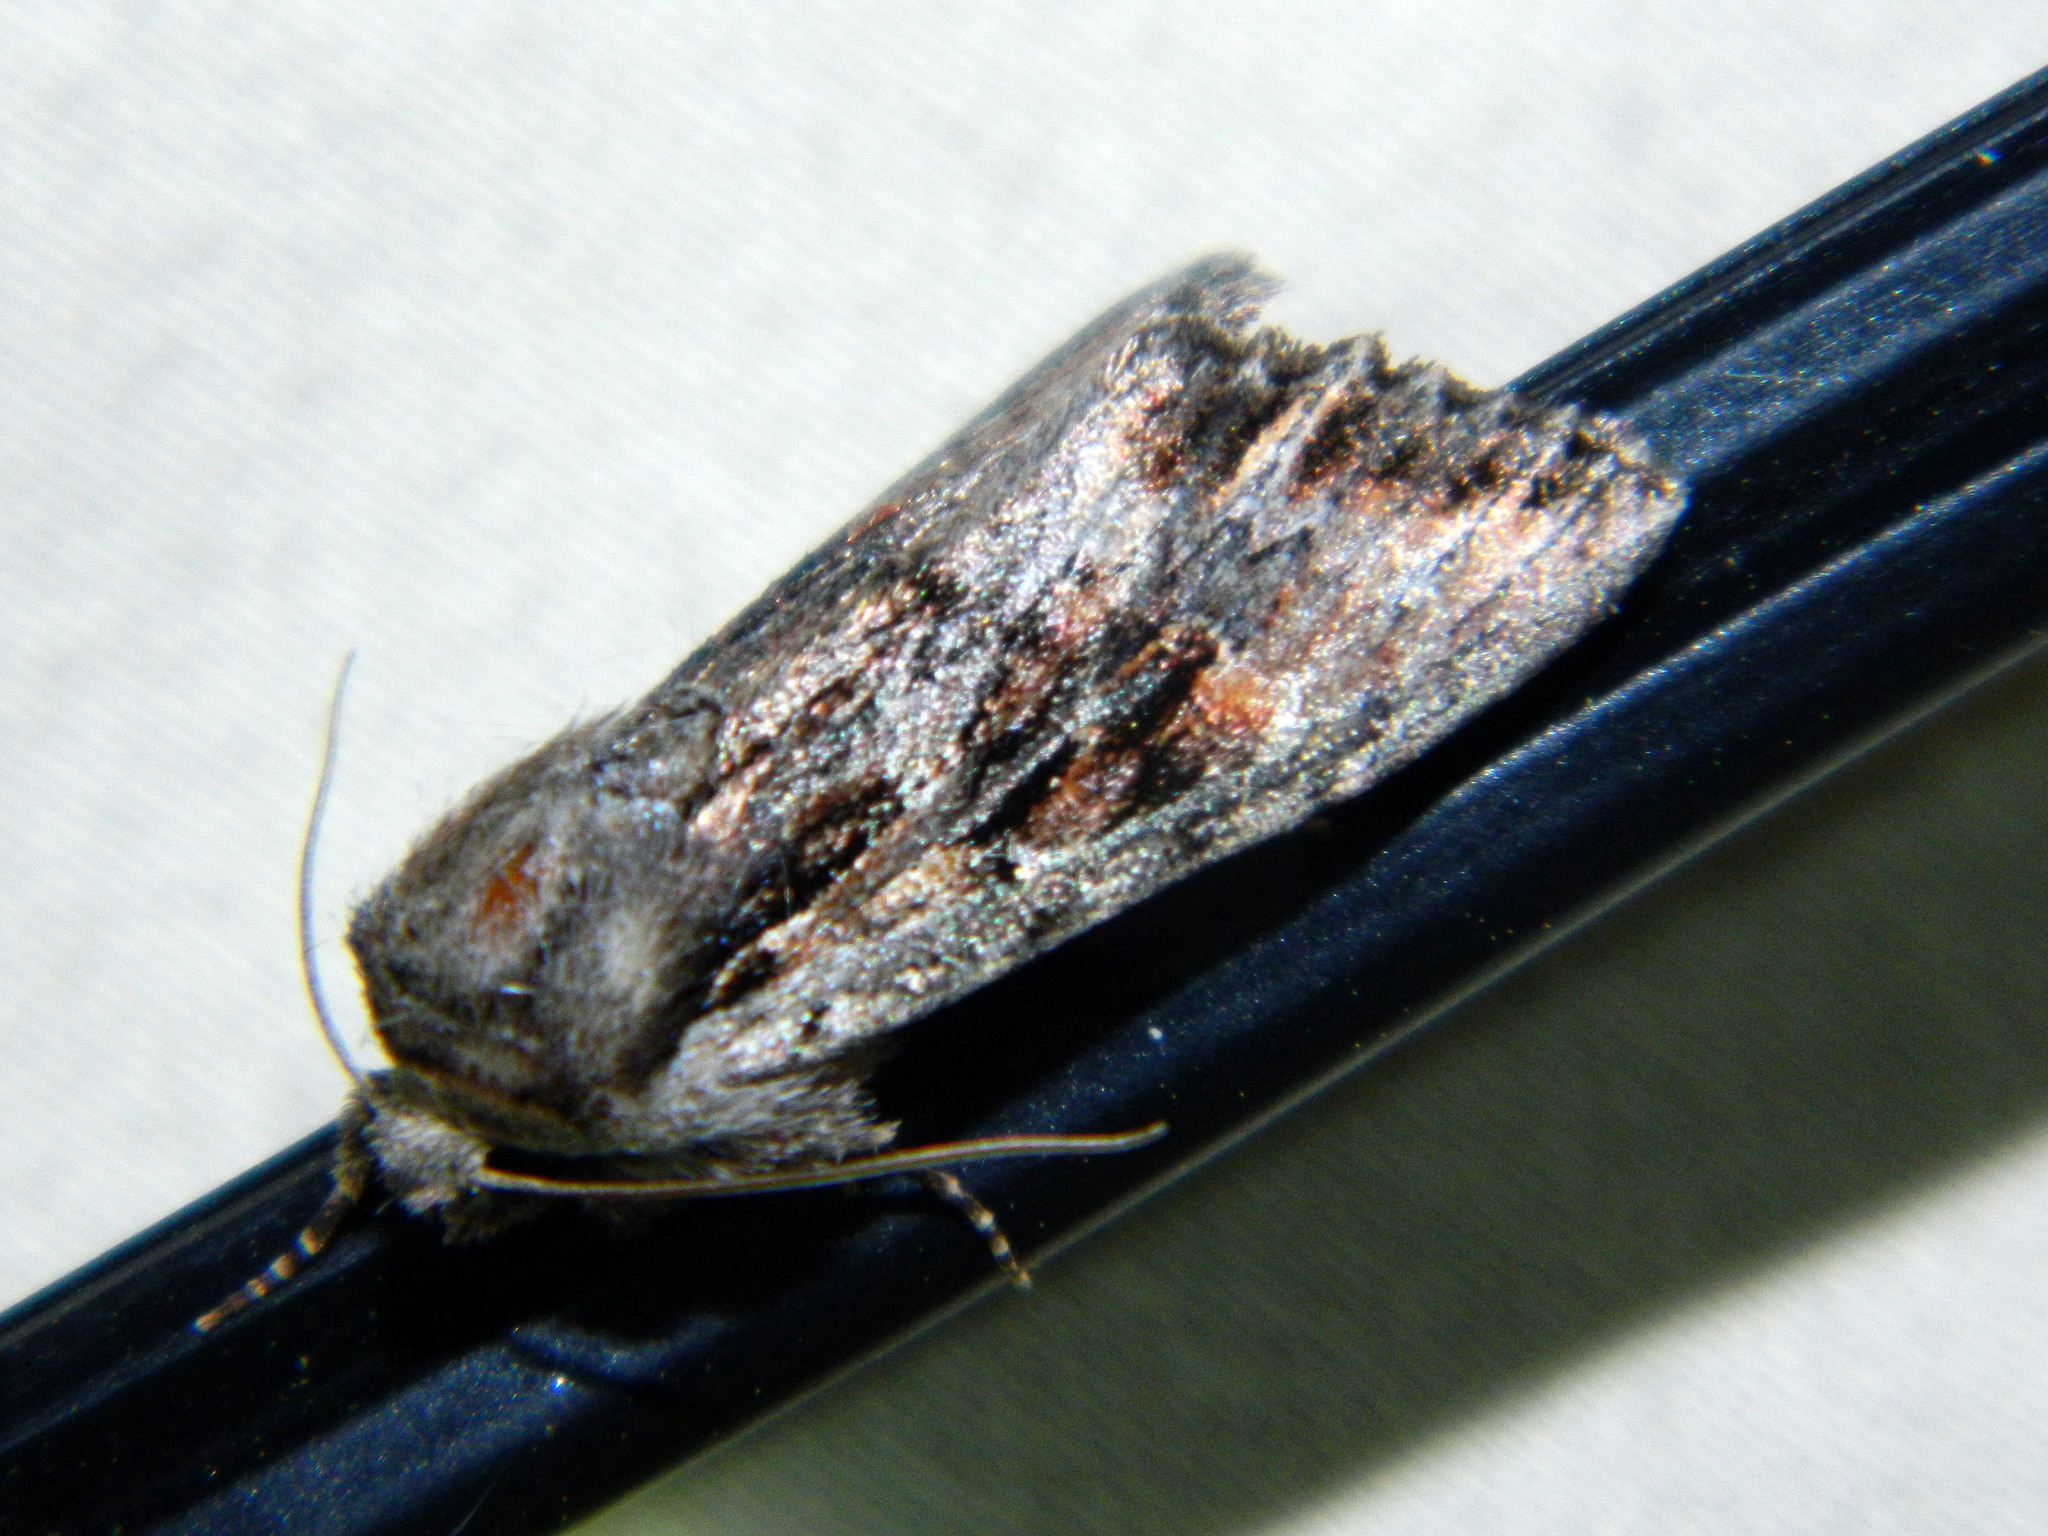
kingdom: Animalia
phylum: Arthropoda
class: Insecta
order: Lepidoptera
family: Noctuidae
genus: Achatia
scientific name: Achatia evicta
